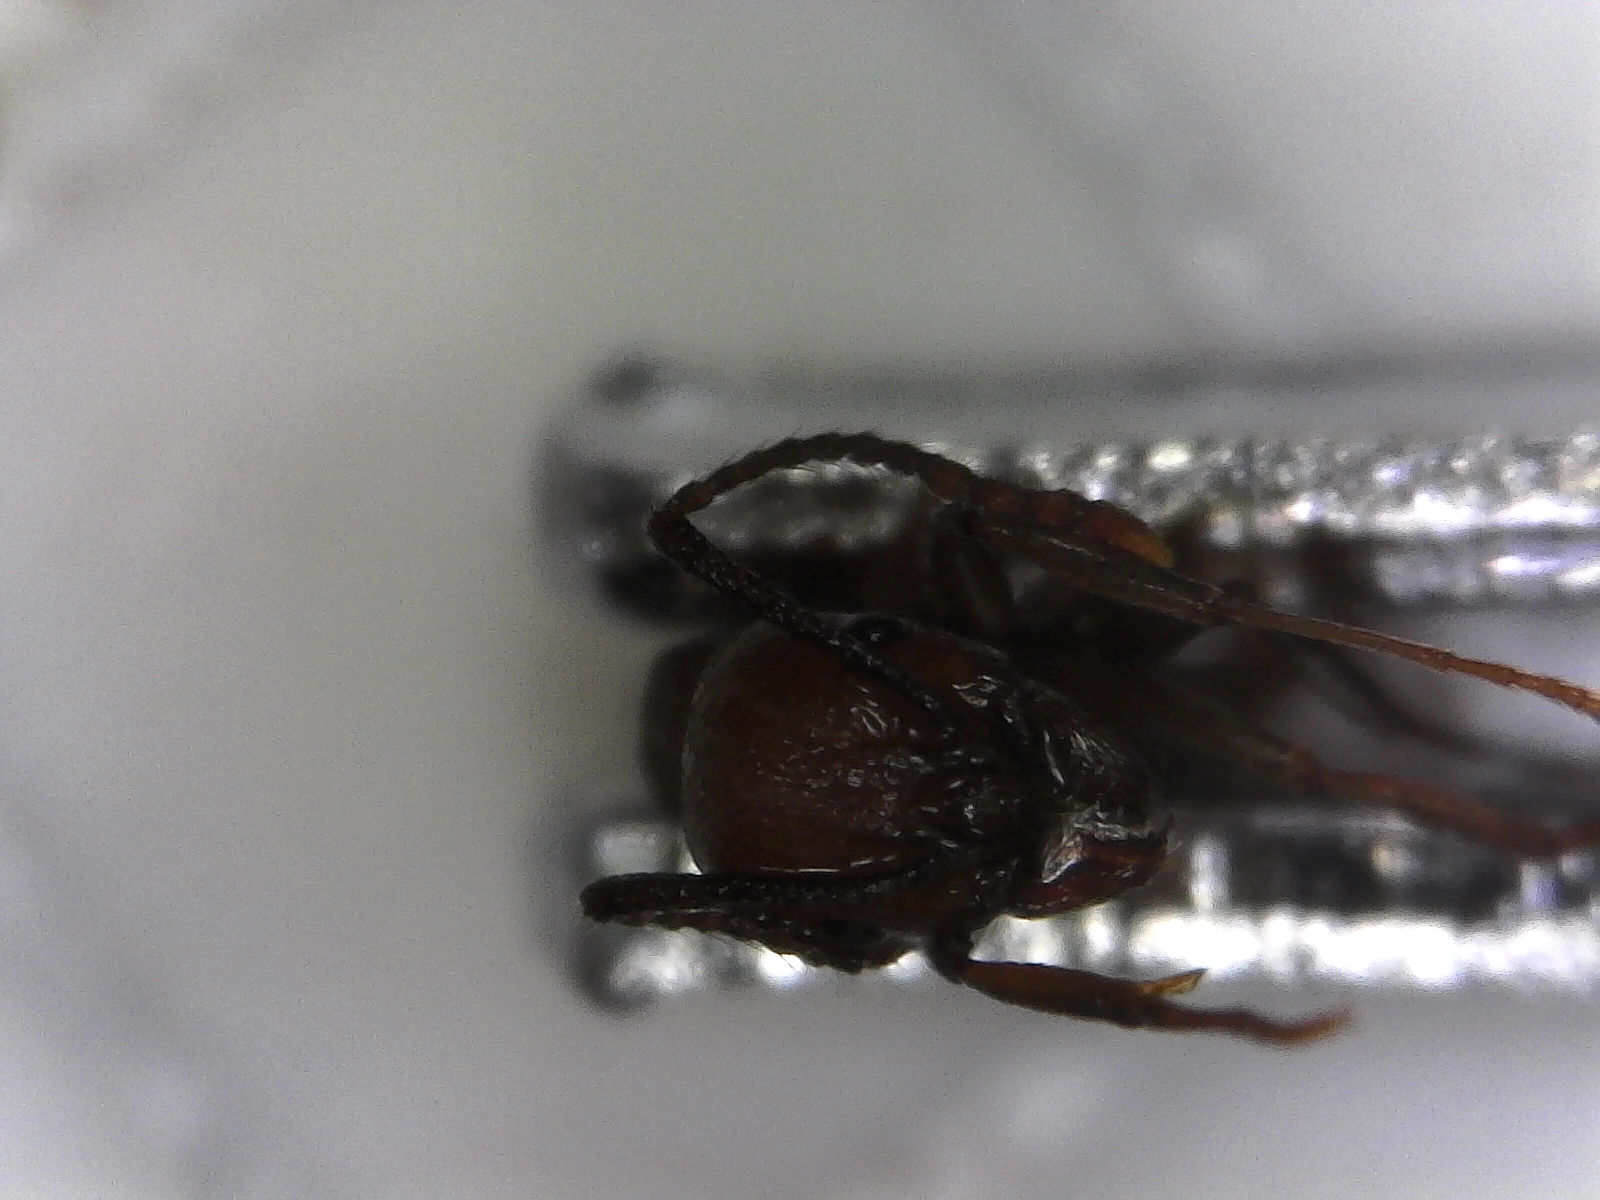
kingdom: Animalia
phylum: Arthropoda
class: Insecta
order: Hymenoptera
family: Formicidae
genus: Aphaenogaster
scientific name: Aphaenogaster tennesseensis
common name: Tennessee thread-waisted ant
